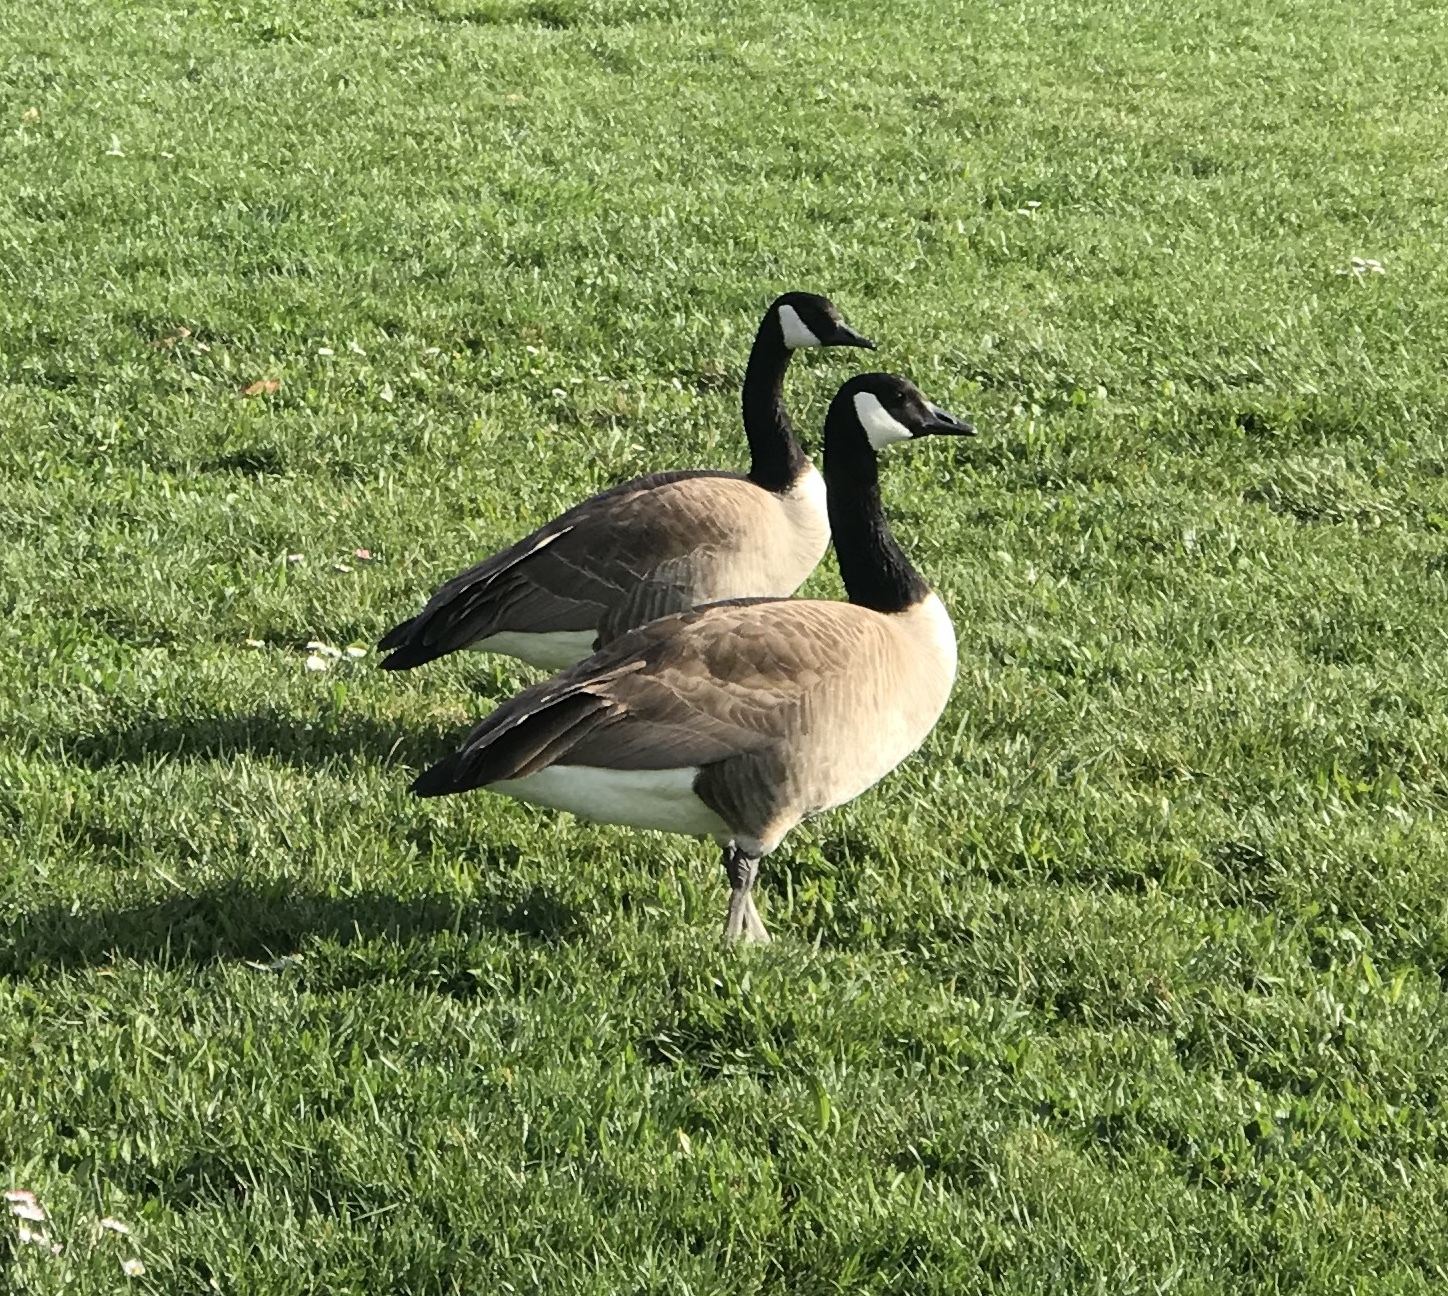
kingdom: Animalia
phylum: Chordata
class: Aves
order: Anseriformes
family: Anatidae
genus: Branta
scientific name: Branta canadensis
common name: Canada goose
